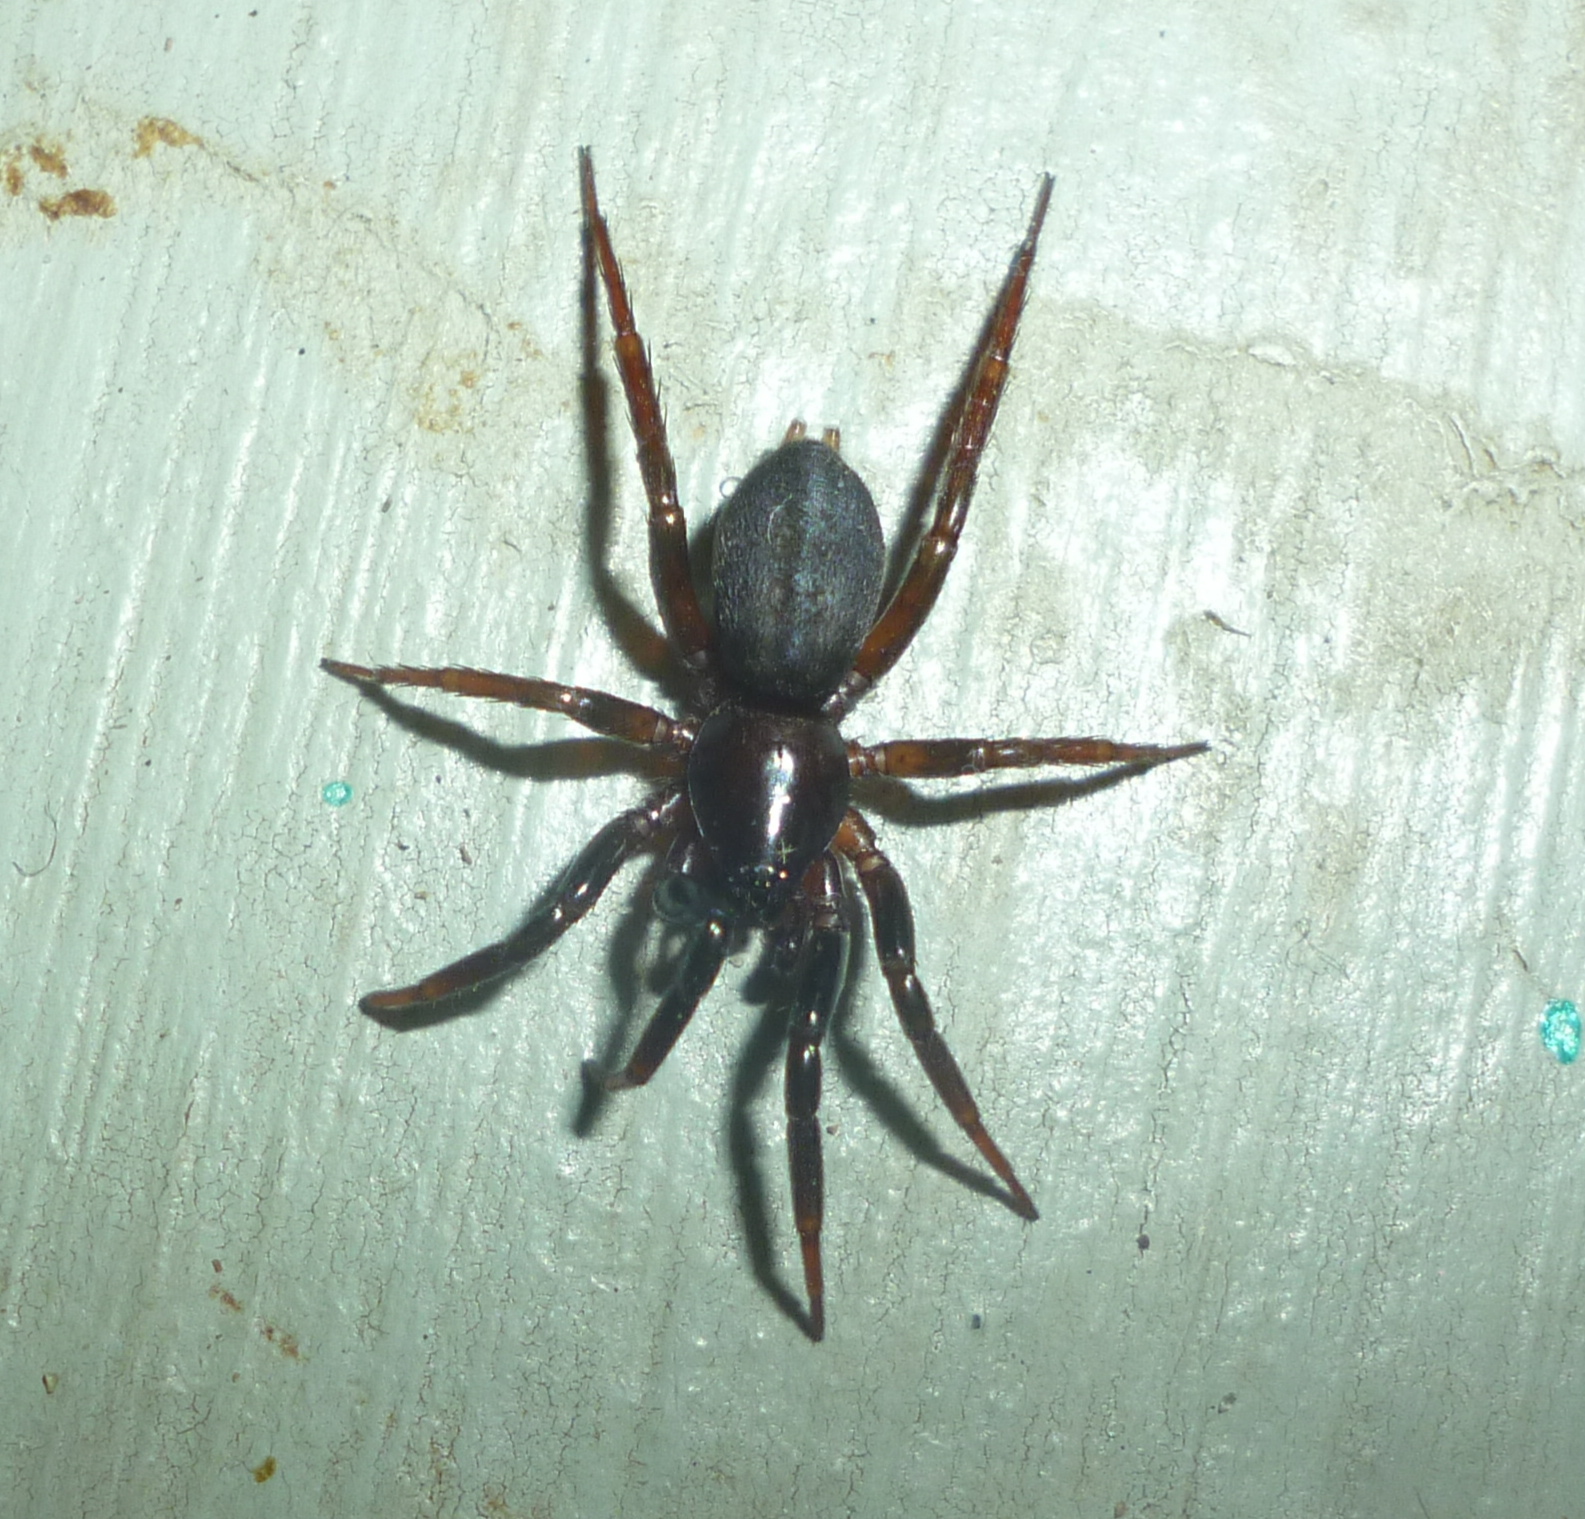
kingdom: Animalia
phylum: Arthropoda
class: Arachnida
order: Araneae
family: Gnaphosidae
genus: Sosticus
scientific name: Sosticus insularis
